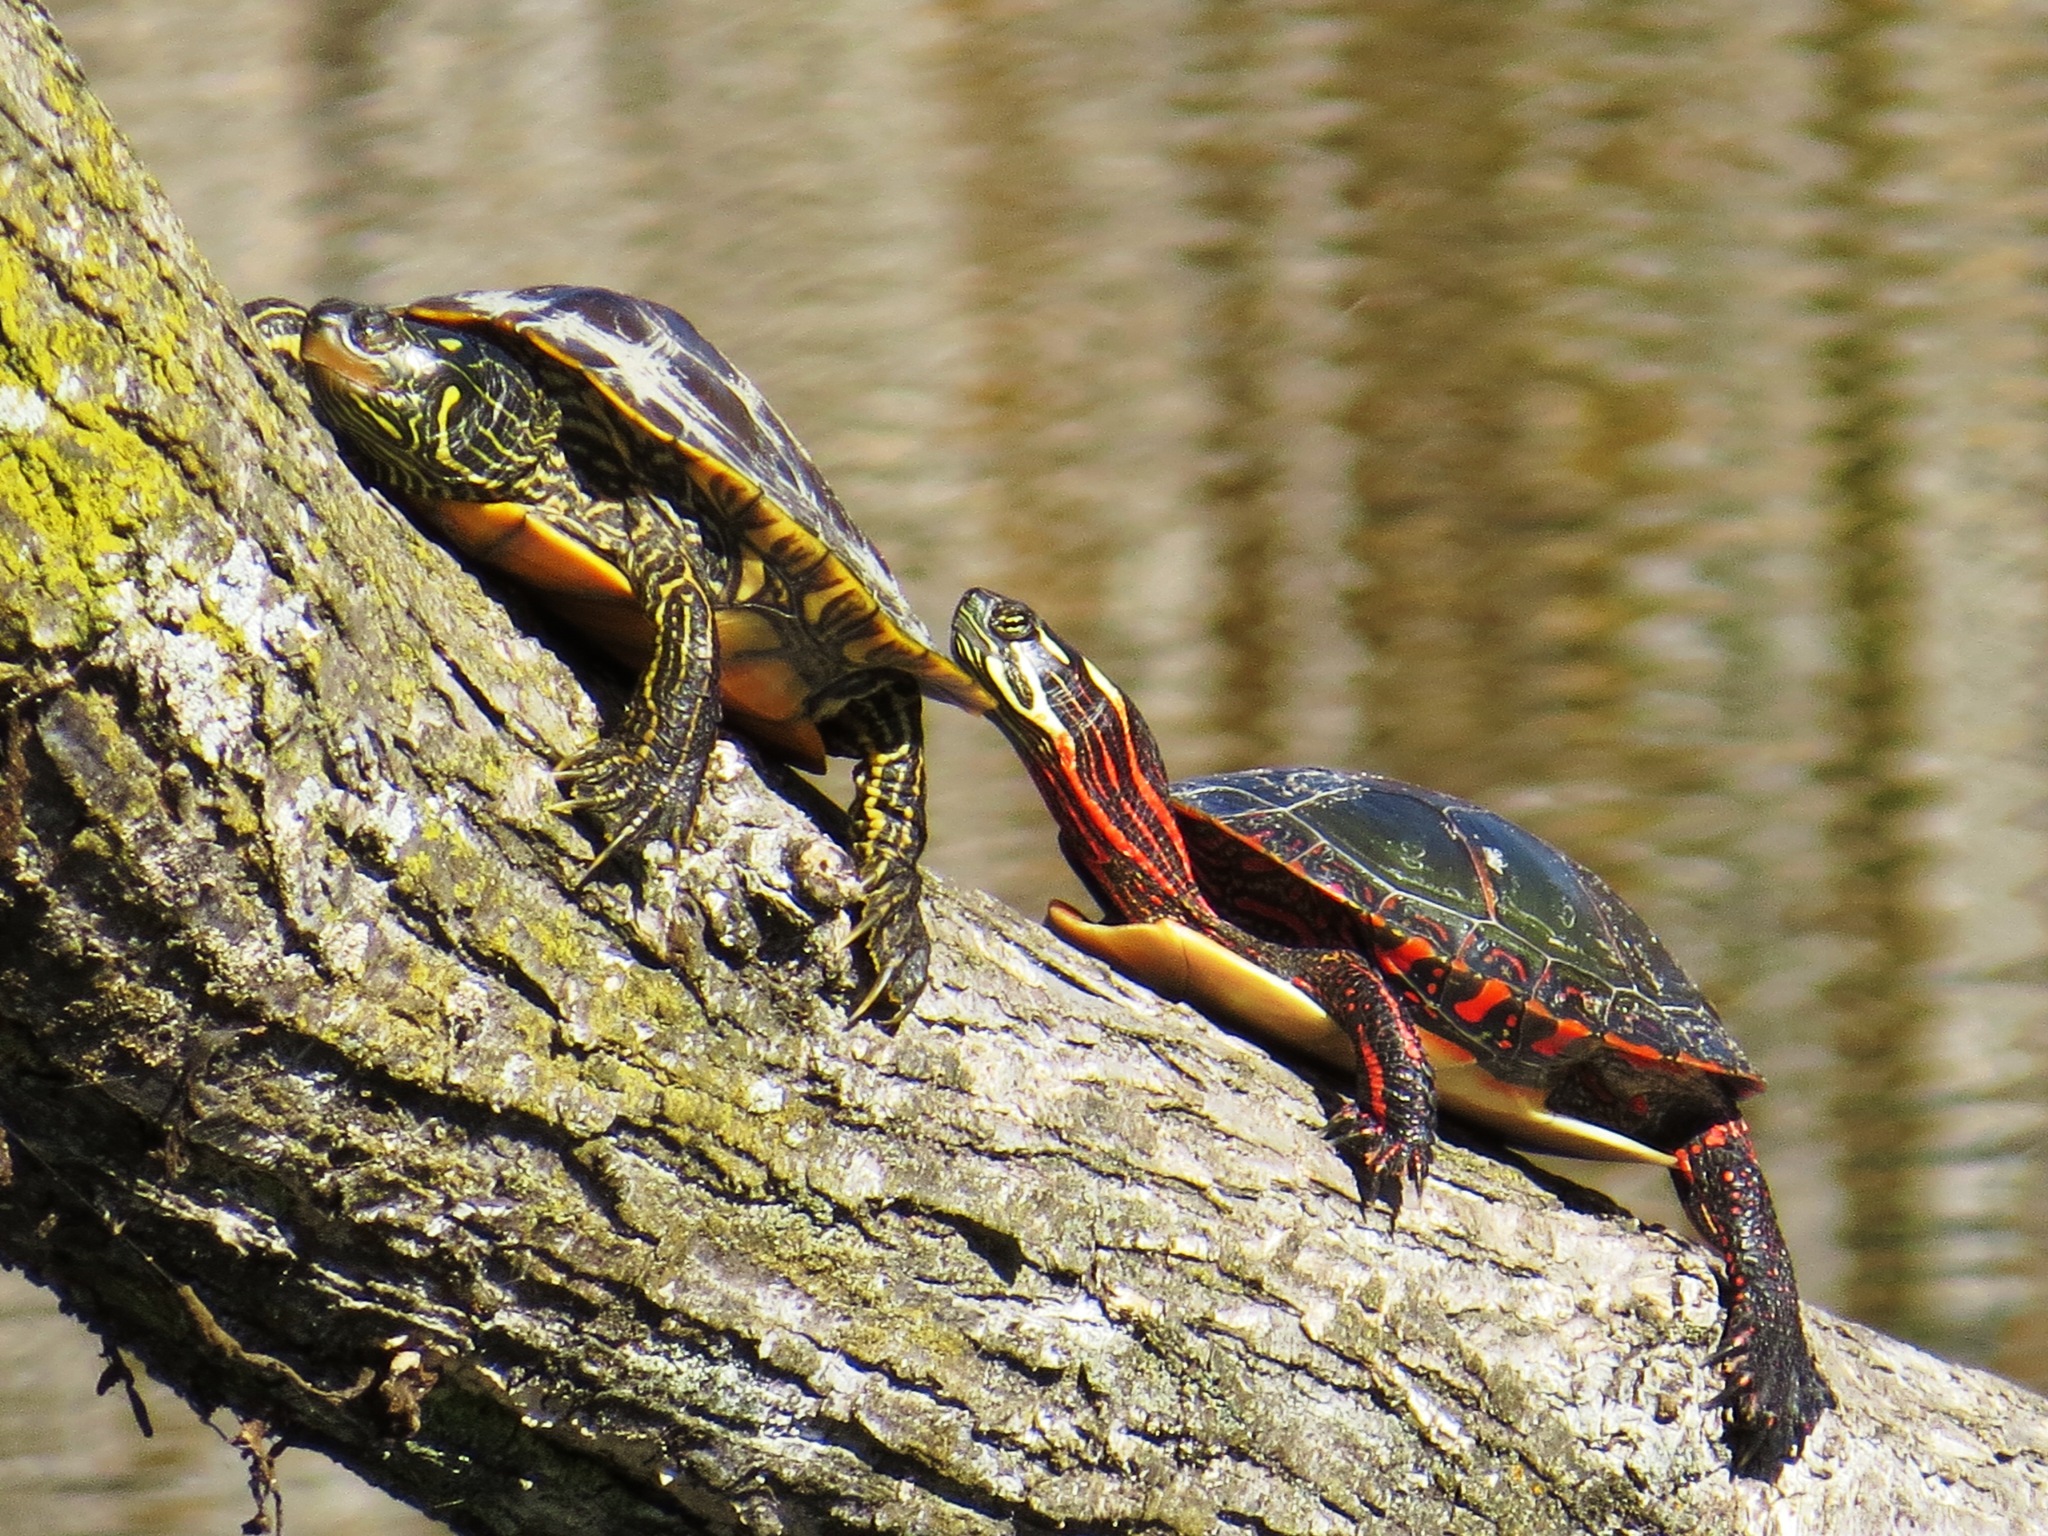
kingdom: Animalia
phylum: Chordata
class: Testudines
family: Emydidae
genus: Chrysemys
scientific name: Chrysemys picta
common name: Painted turtle
